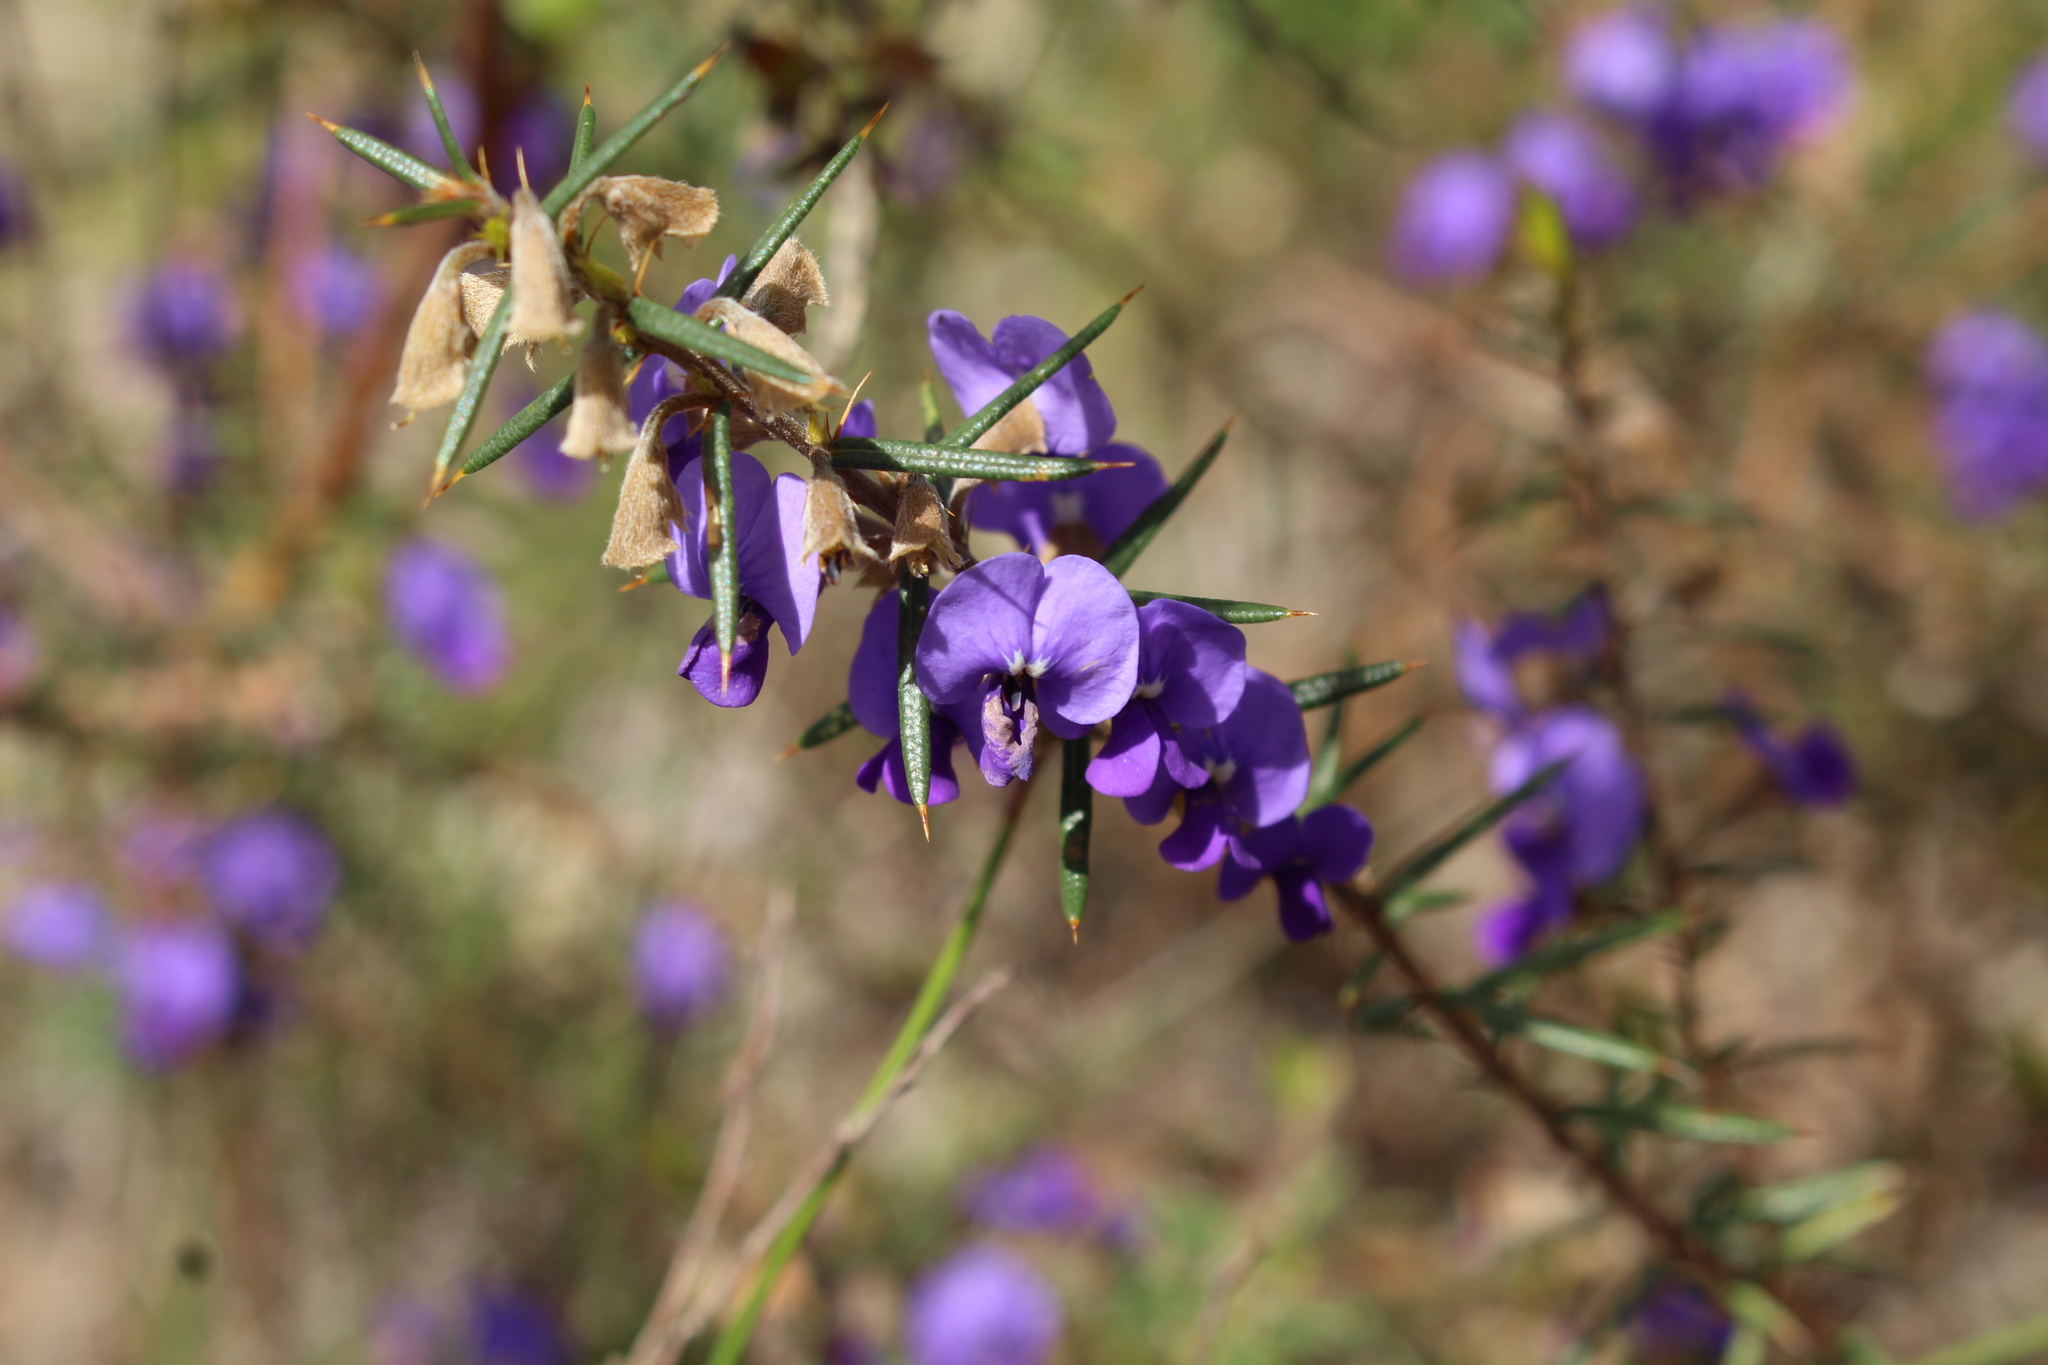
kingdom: Plantae
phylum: Tracheophyta
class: Magnoliopsida
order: Fabales
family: Fabaceae
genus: Hovea
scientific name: Hovea pungens
